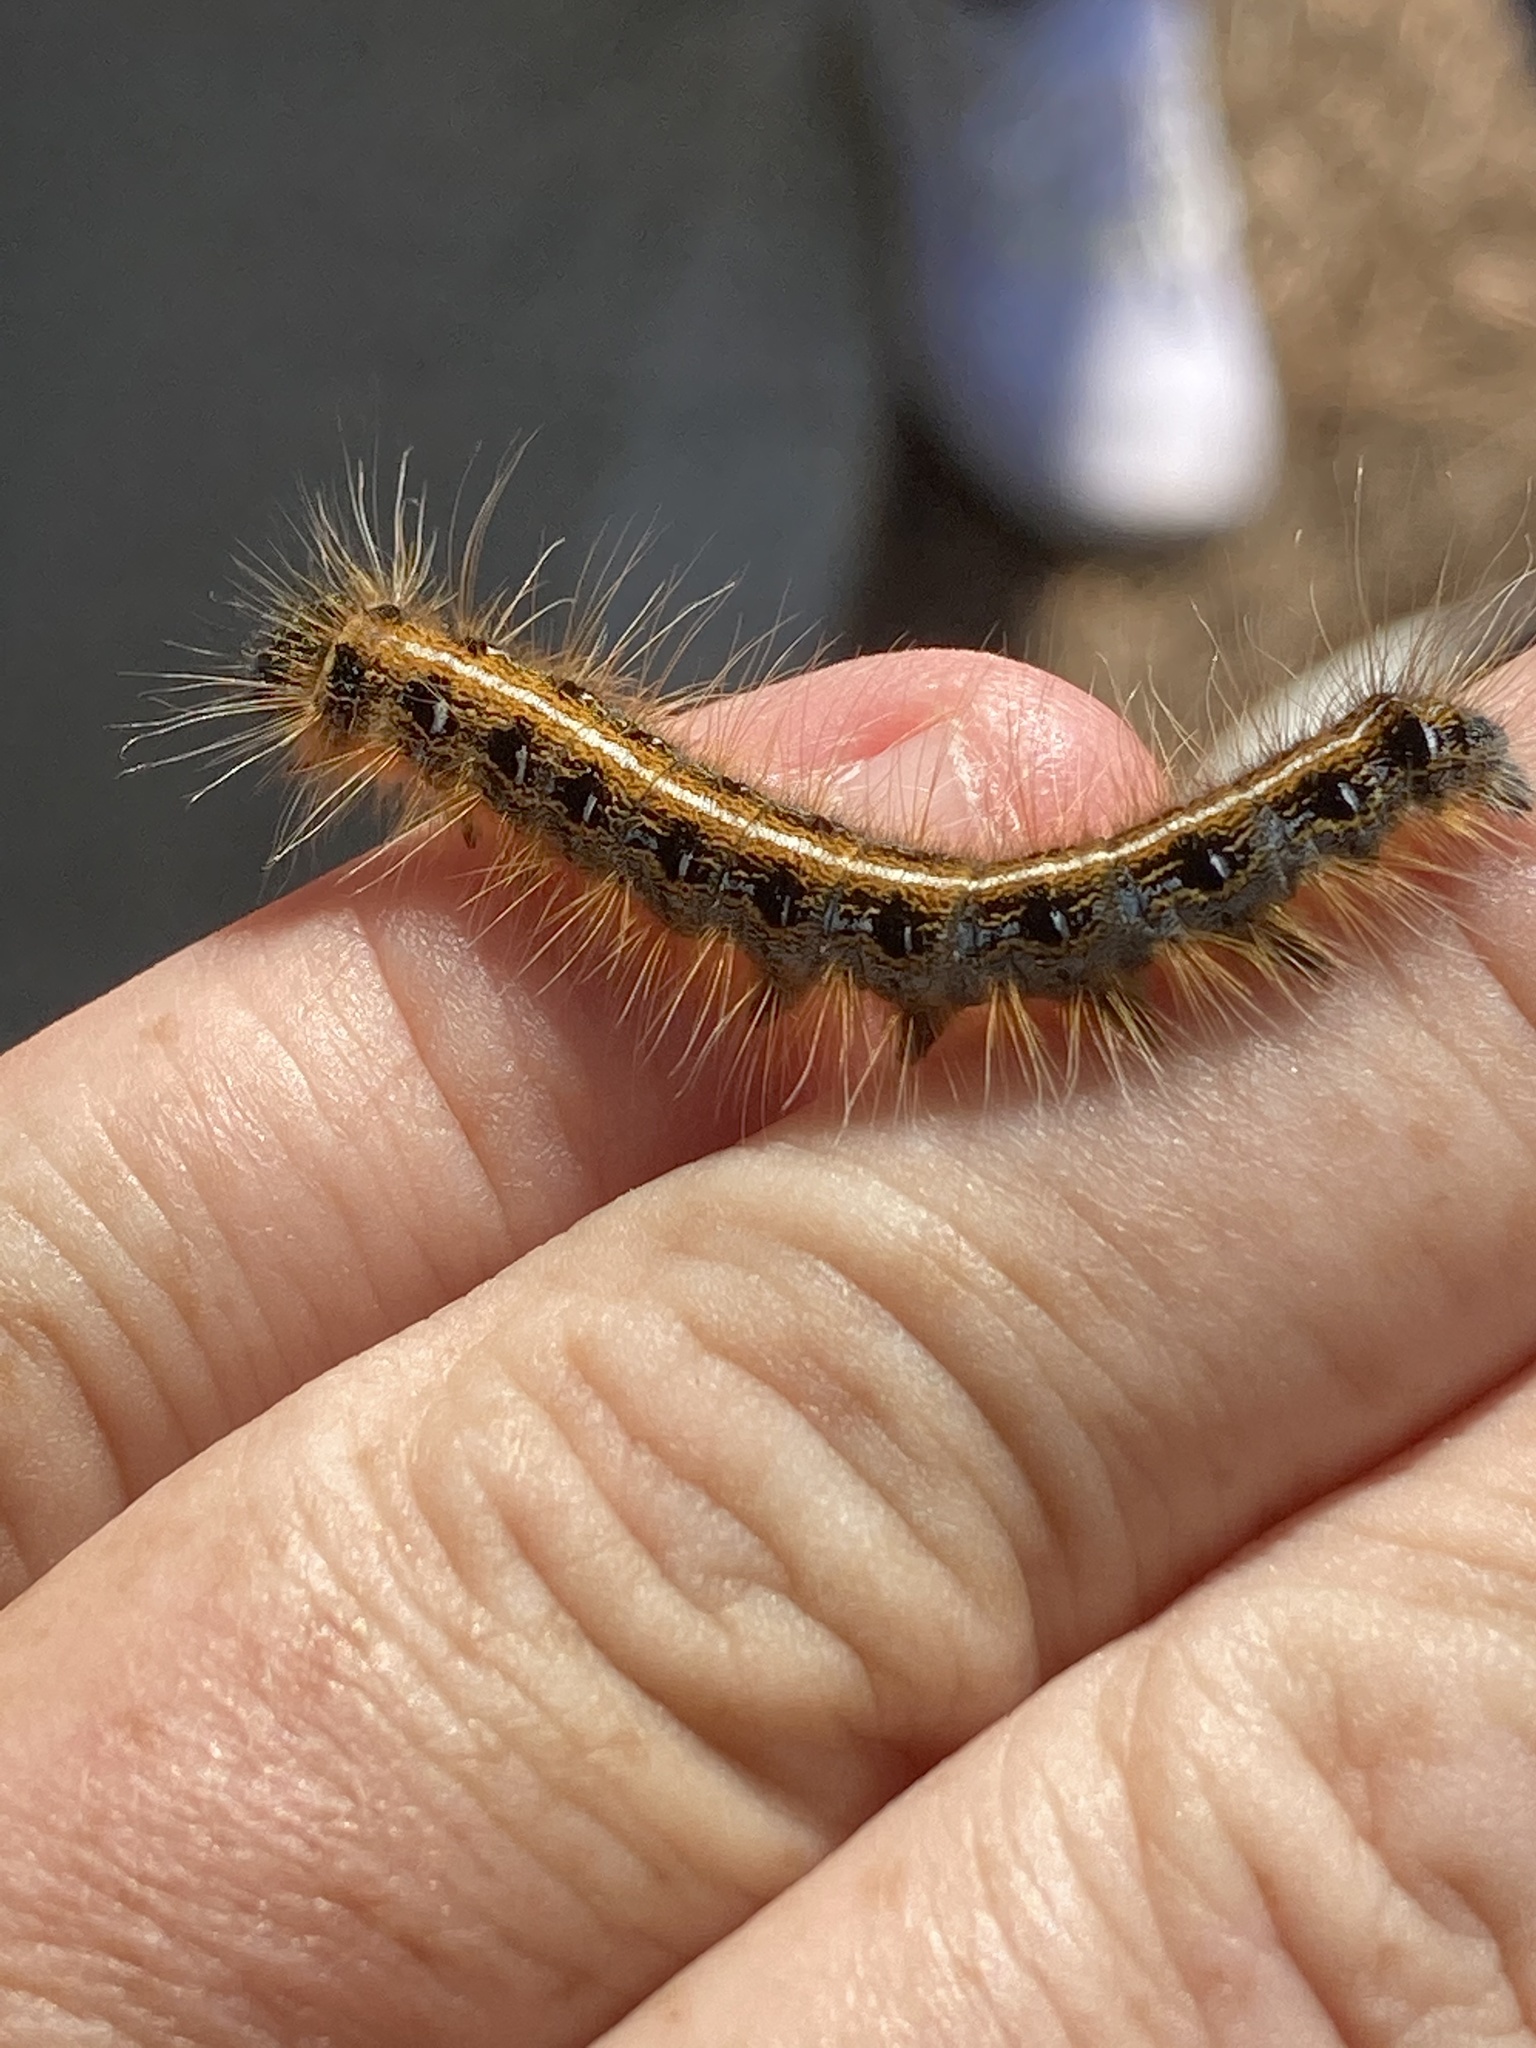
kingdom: Animalia
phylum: Arthropoda
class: Insecta
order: Lepidoptera
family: Lasiocampidae
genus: Malacosoma
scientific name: Malacosoma americana
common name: Eastern tent caterpillar moth
